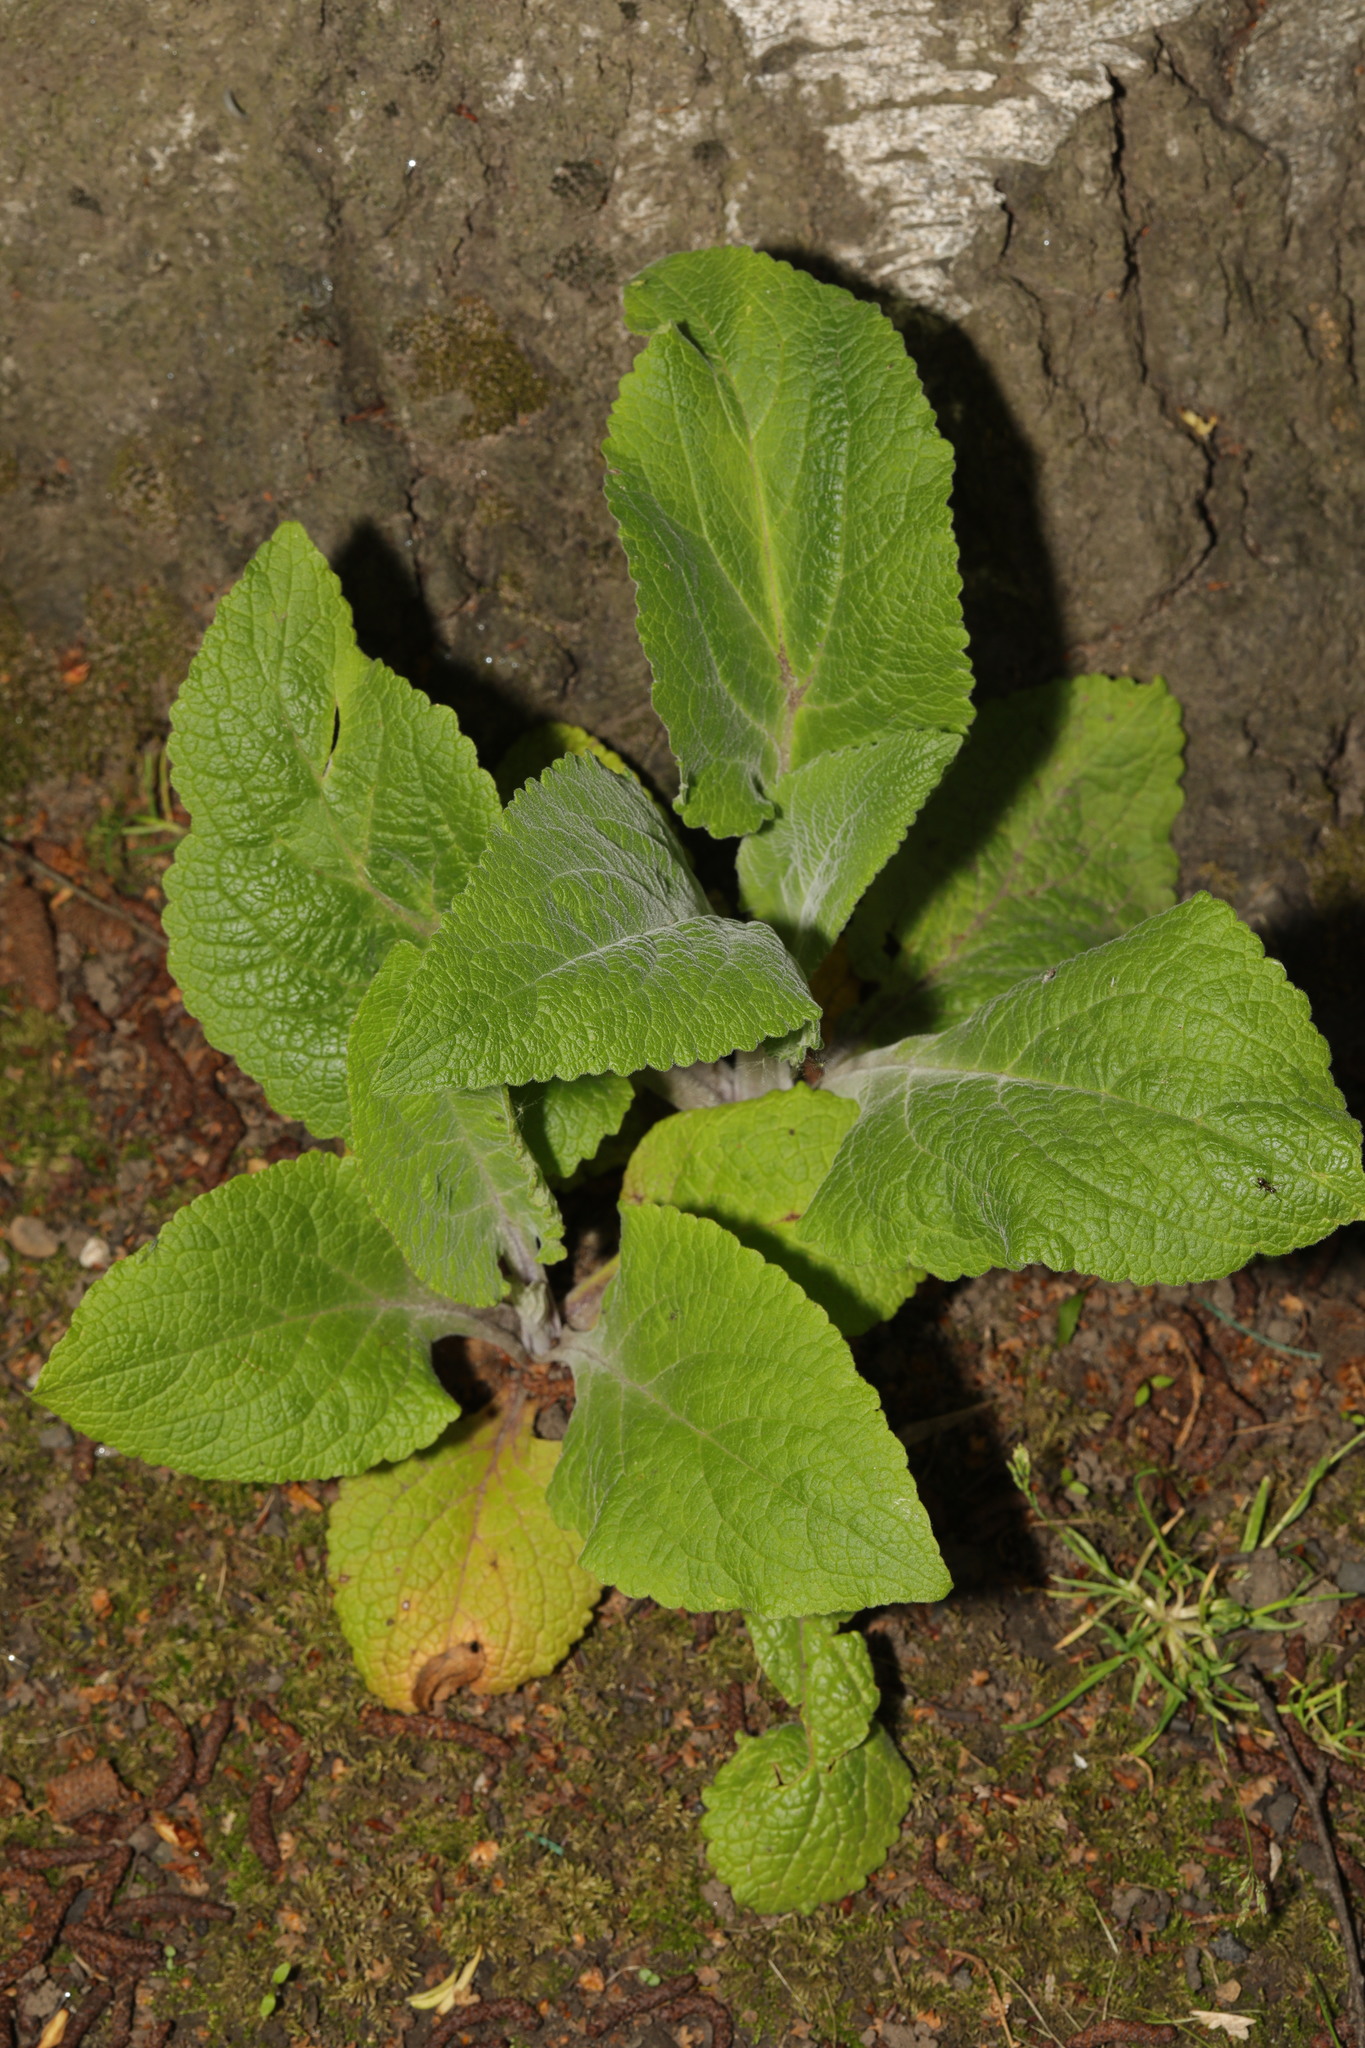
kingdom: Plantae
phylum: Tracheophyta
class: Magnoliopsida
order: Lamiales
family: Plantaginaceae
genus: Digitalis
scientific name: Digitalis purpurea
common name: Foxglove
